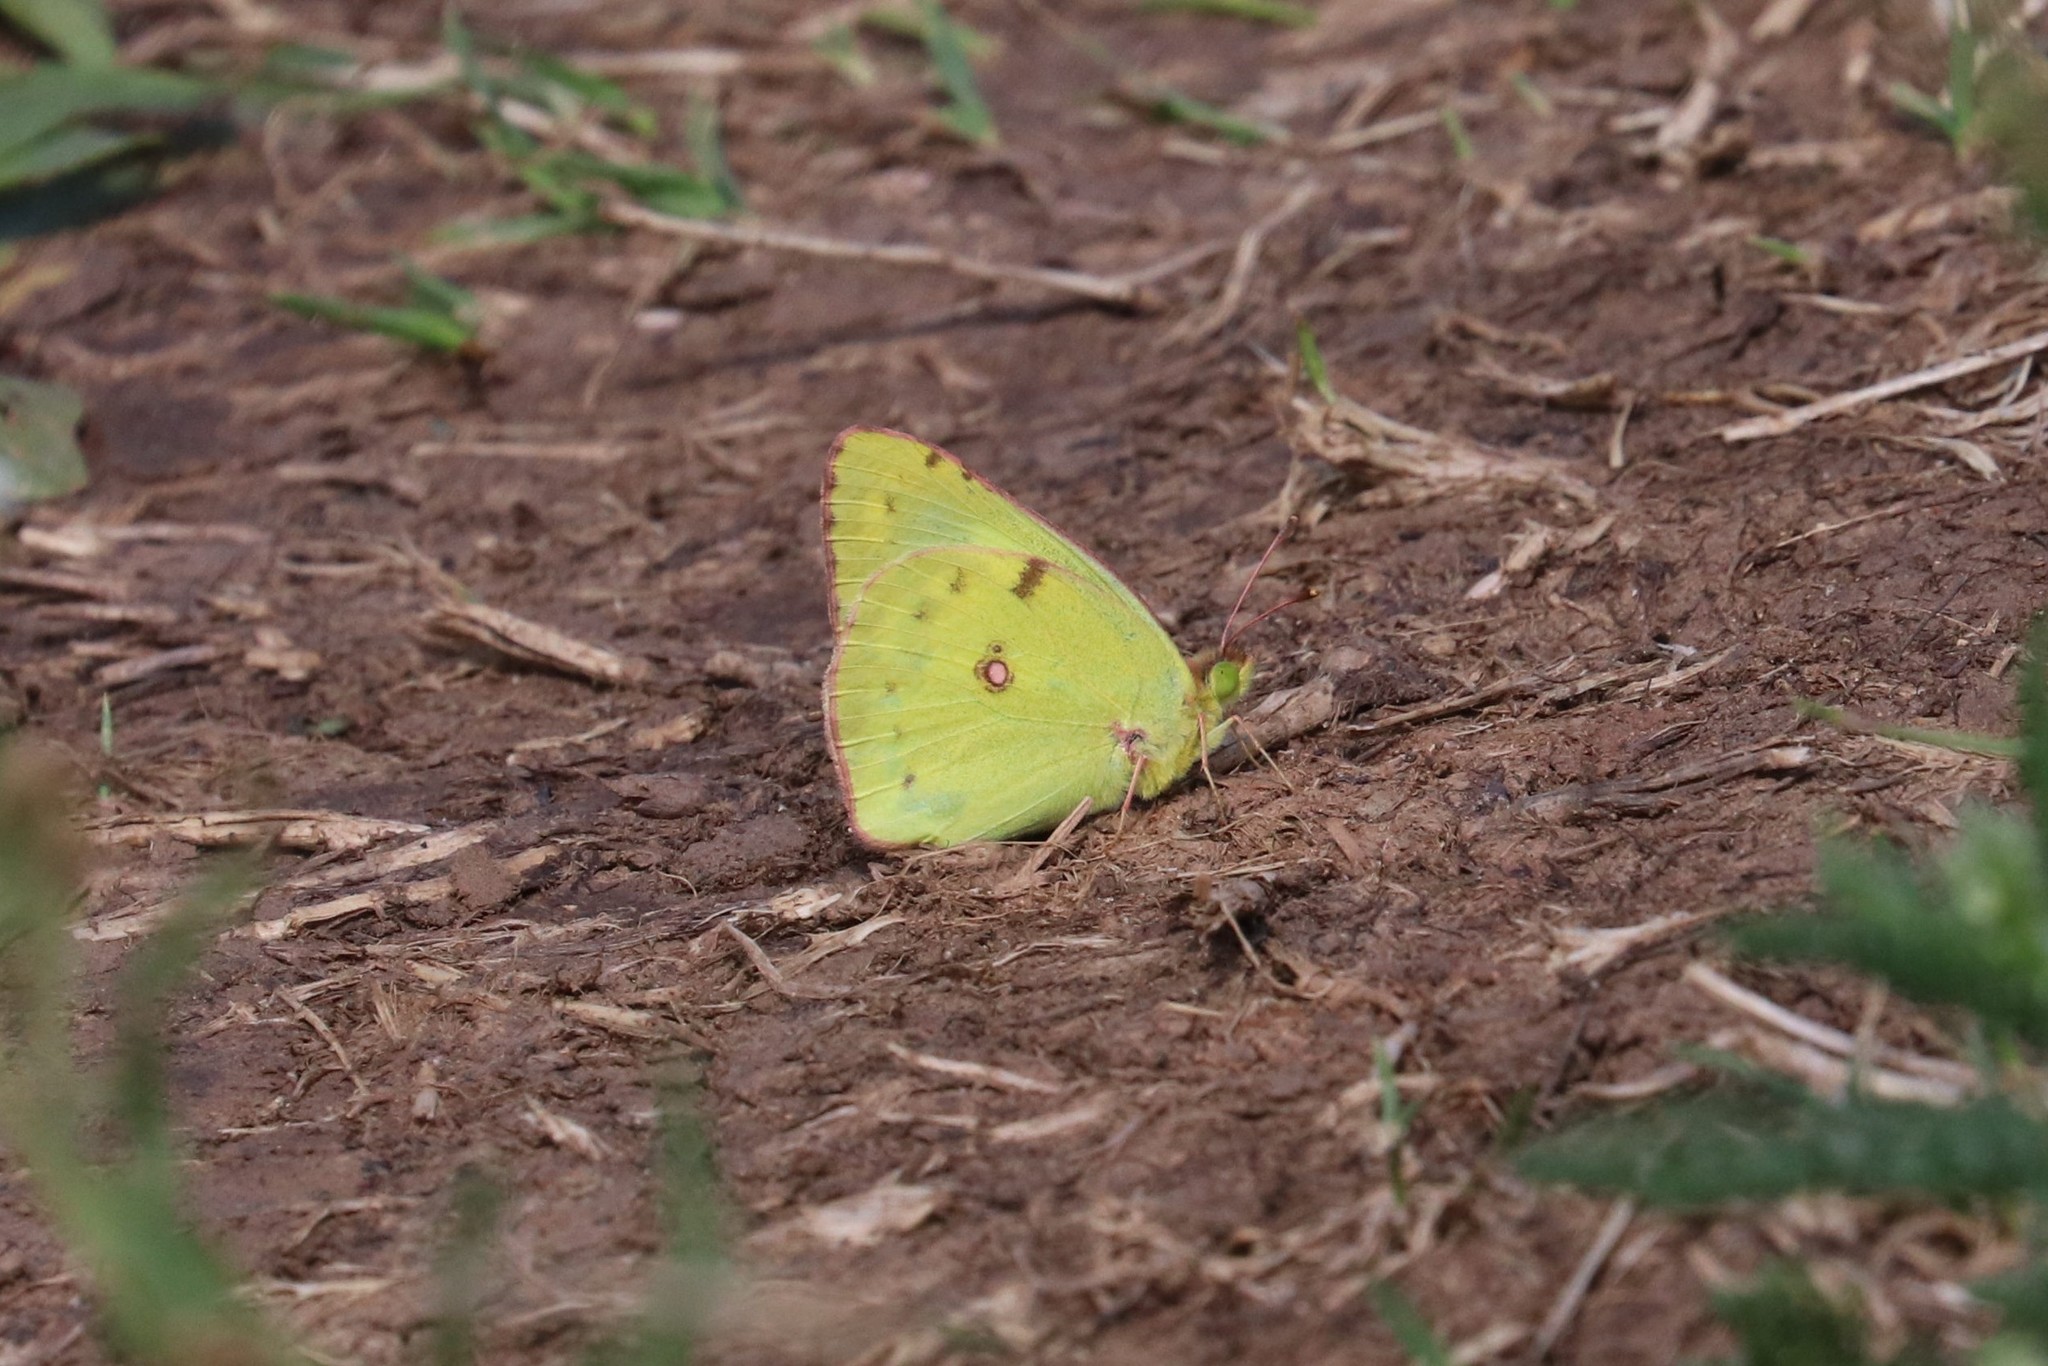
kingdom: Animalia
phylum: Arthropoda
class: Insecta
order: Lepidoptera
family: Pieridae
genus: Colias
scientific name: Colias hyale
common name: Pale clouded yellow
